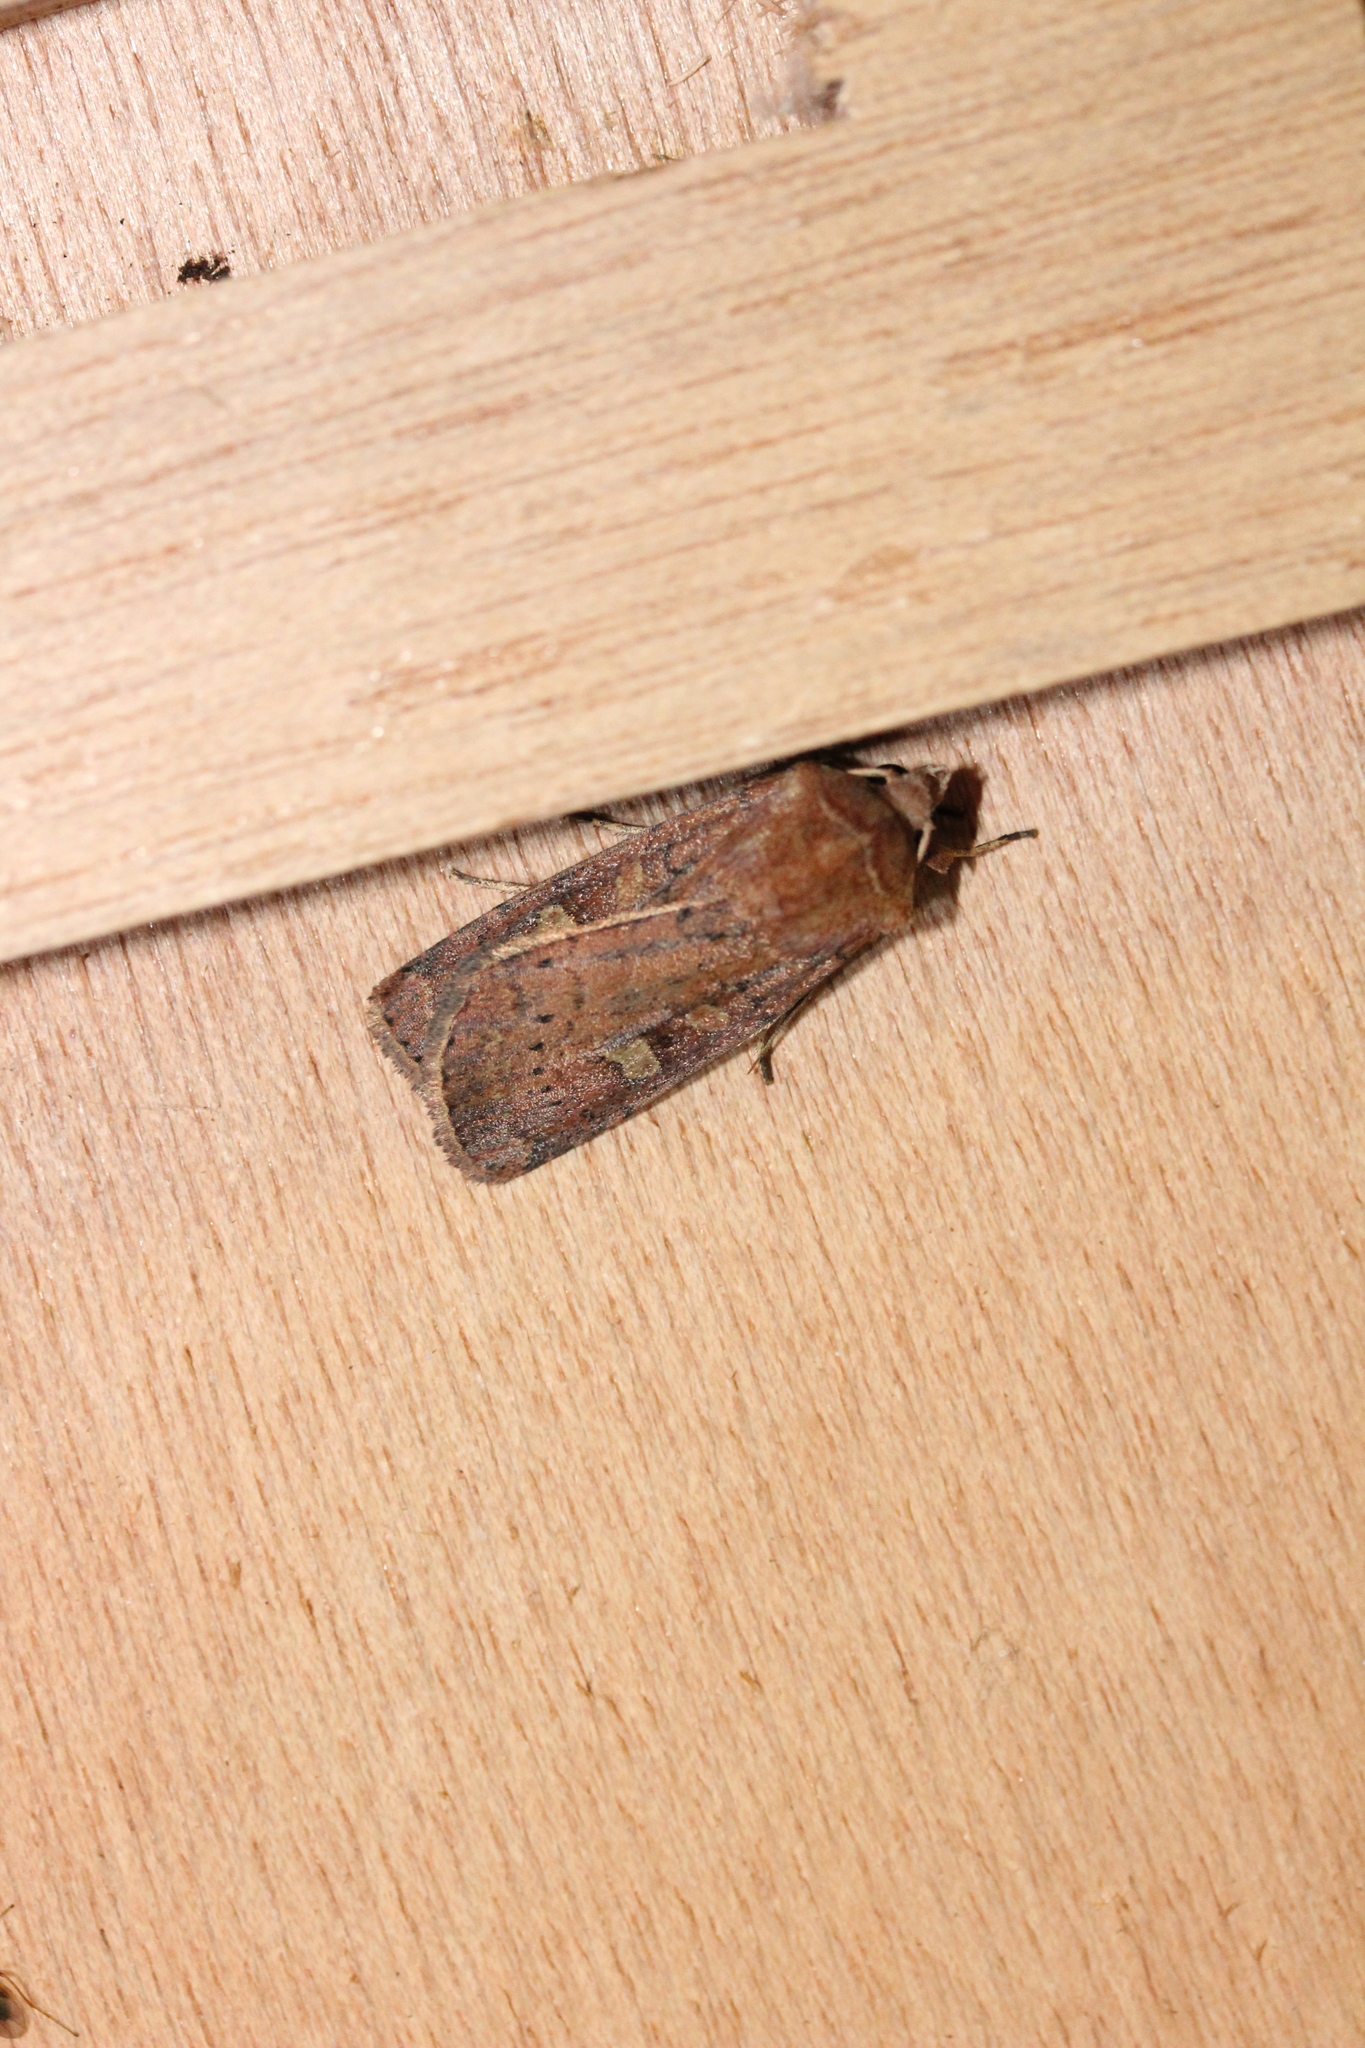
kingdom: Animalia
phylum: Arthropoda
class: Insecta
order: Lepidoptera
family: Noctuidae
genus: Xestia
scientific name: Xestia xanthographa
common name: Square-spot rustic
